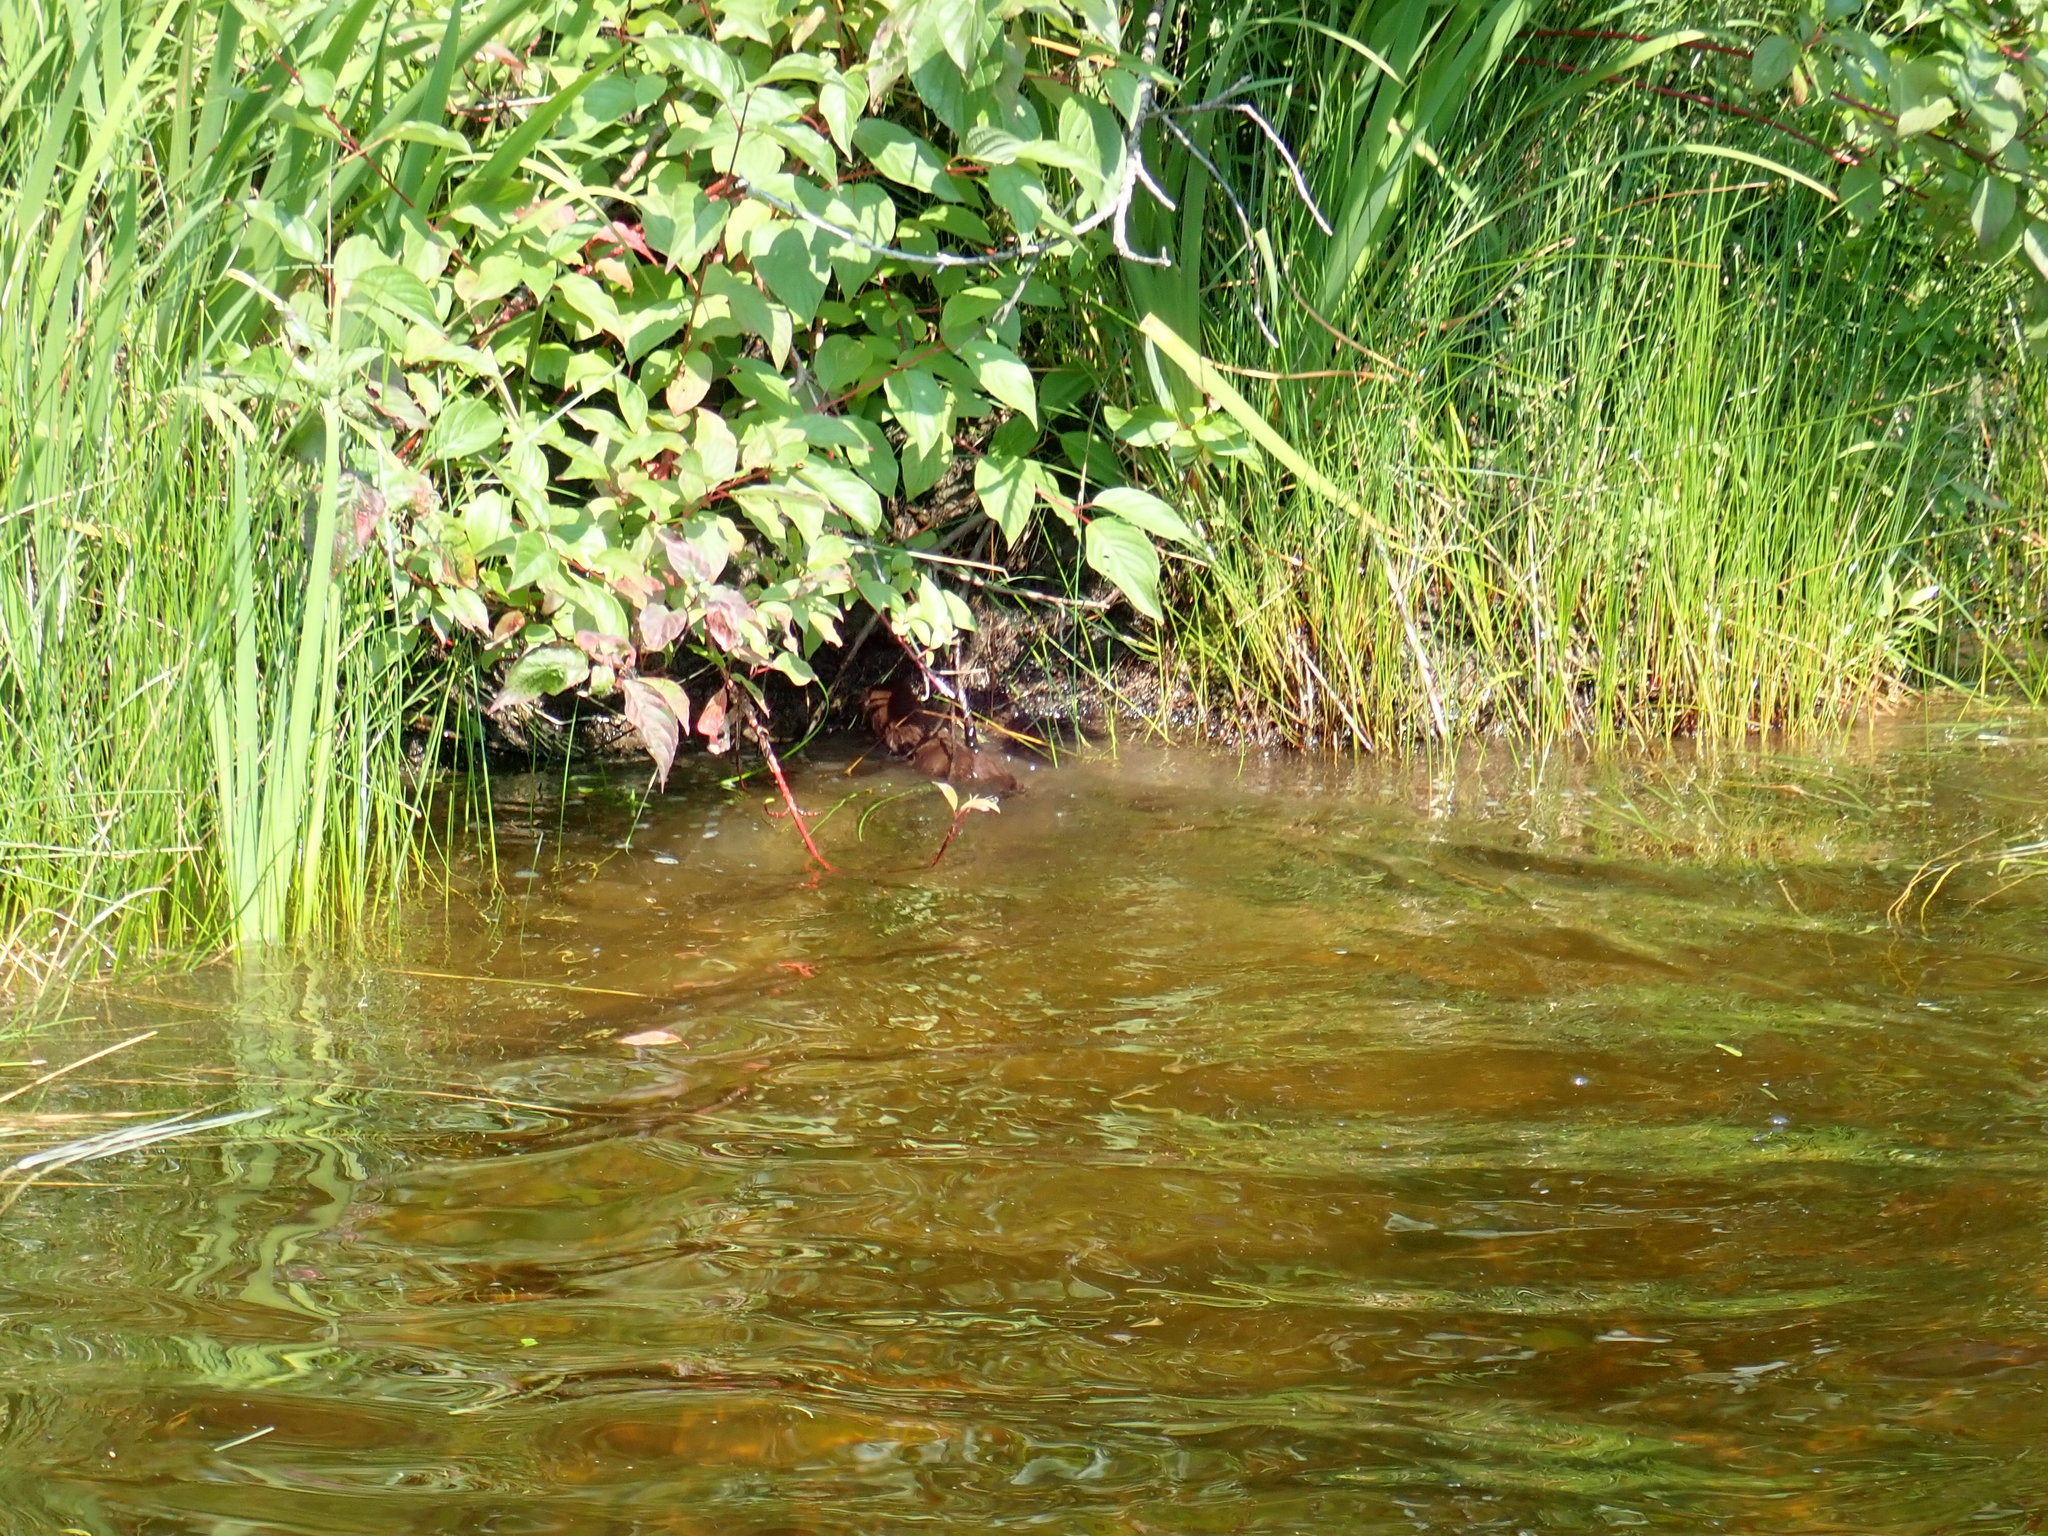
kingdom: Animalia
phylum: Chordata
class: Mammalia
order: Carnivora
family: Mustelidae
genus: Mustela
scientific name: Mustela
